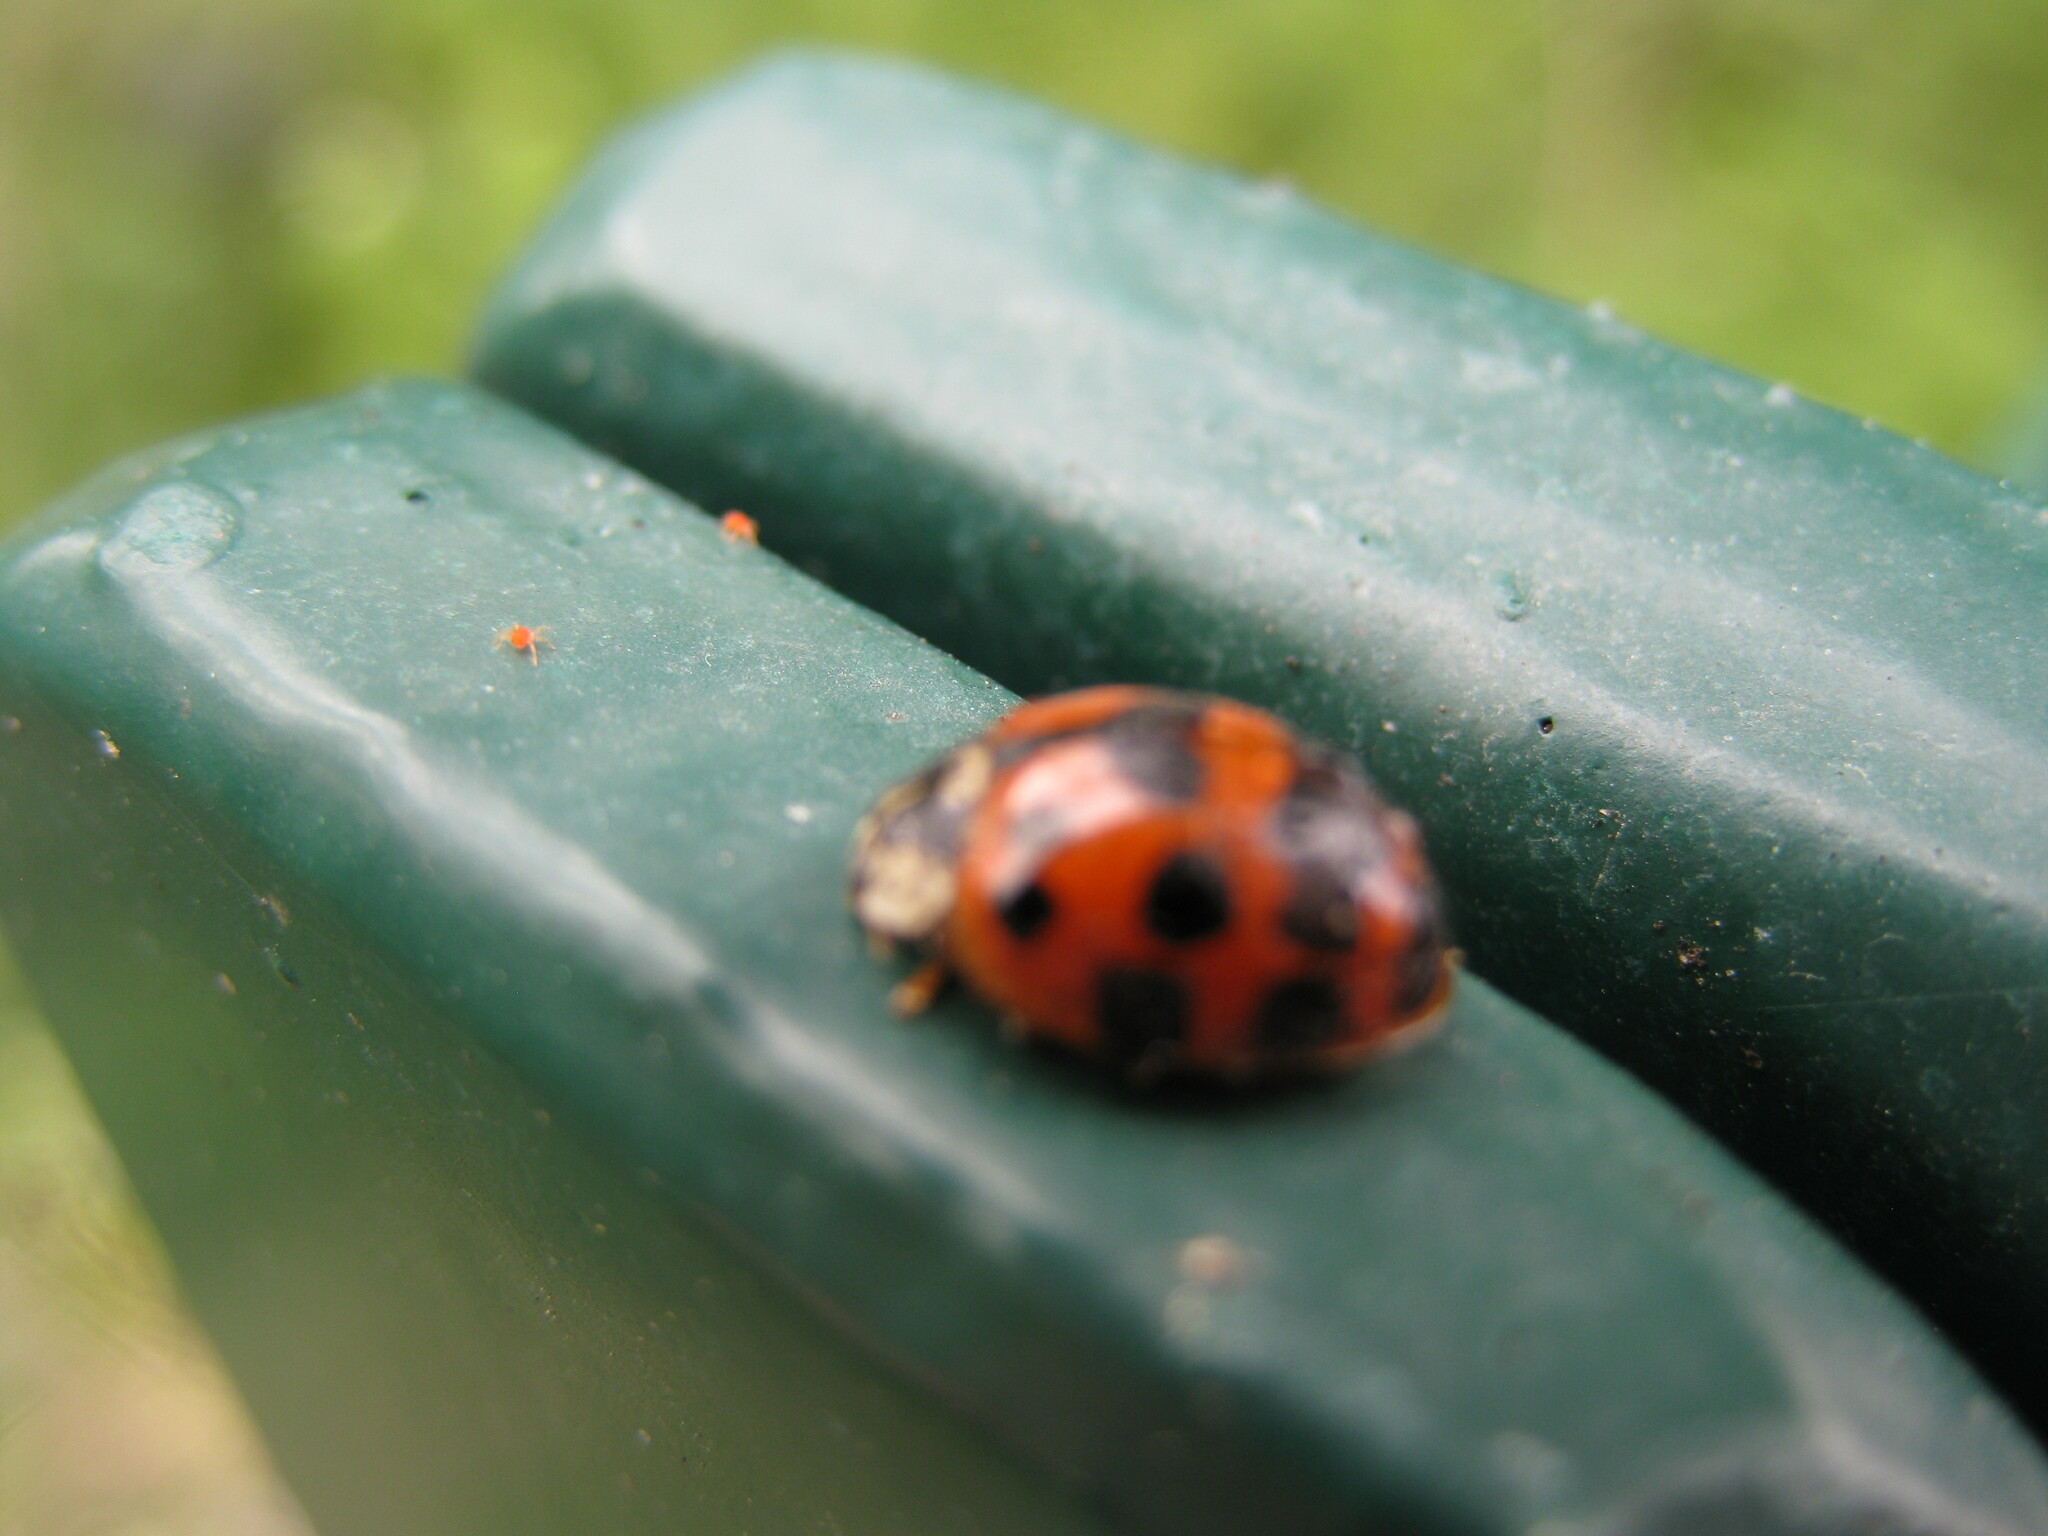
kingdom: Animalia
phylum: Arthropoda
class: Insecta
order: Coleoptera
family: Coccinellidae
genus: Harmonia
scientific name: Harmonia axyridis
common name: Harlequin ladybird
